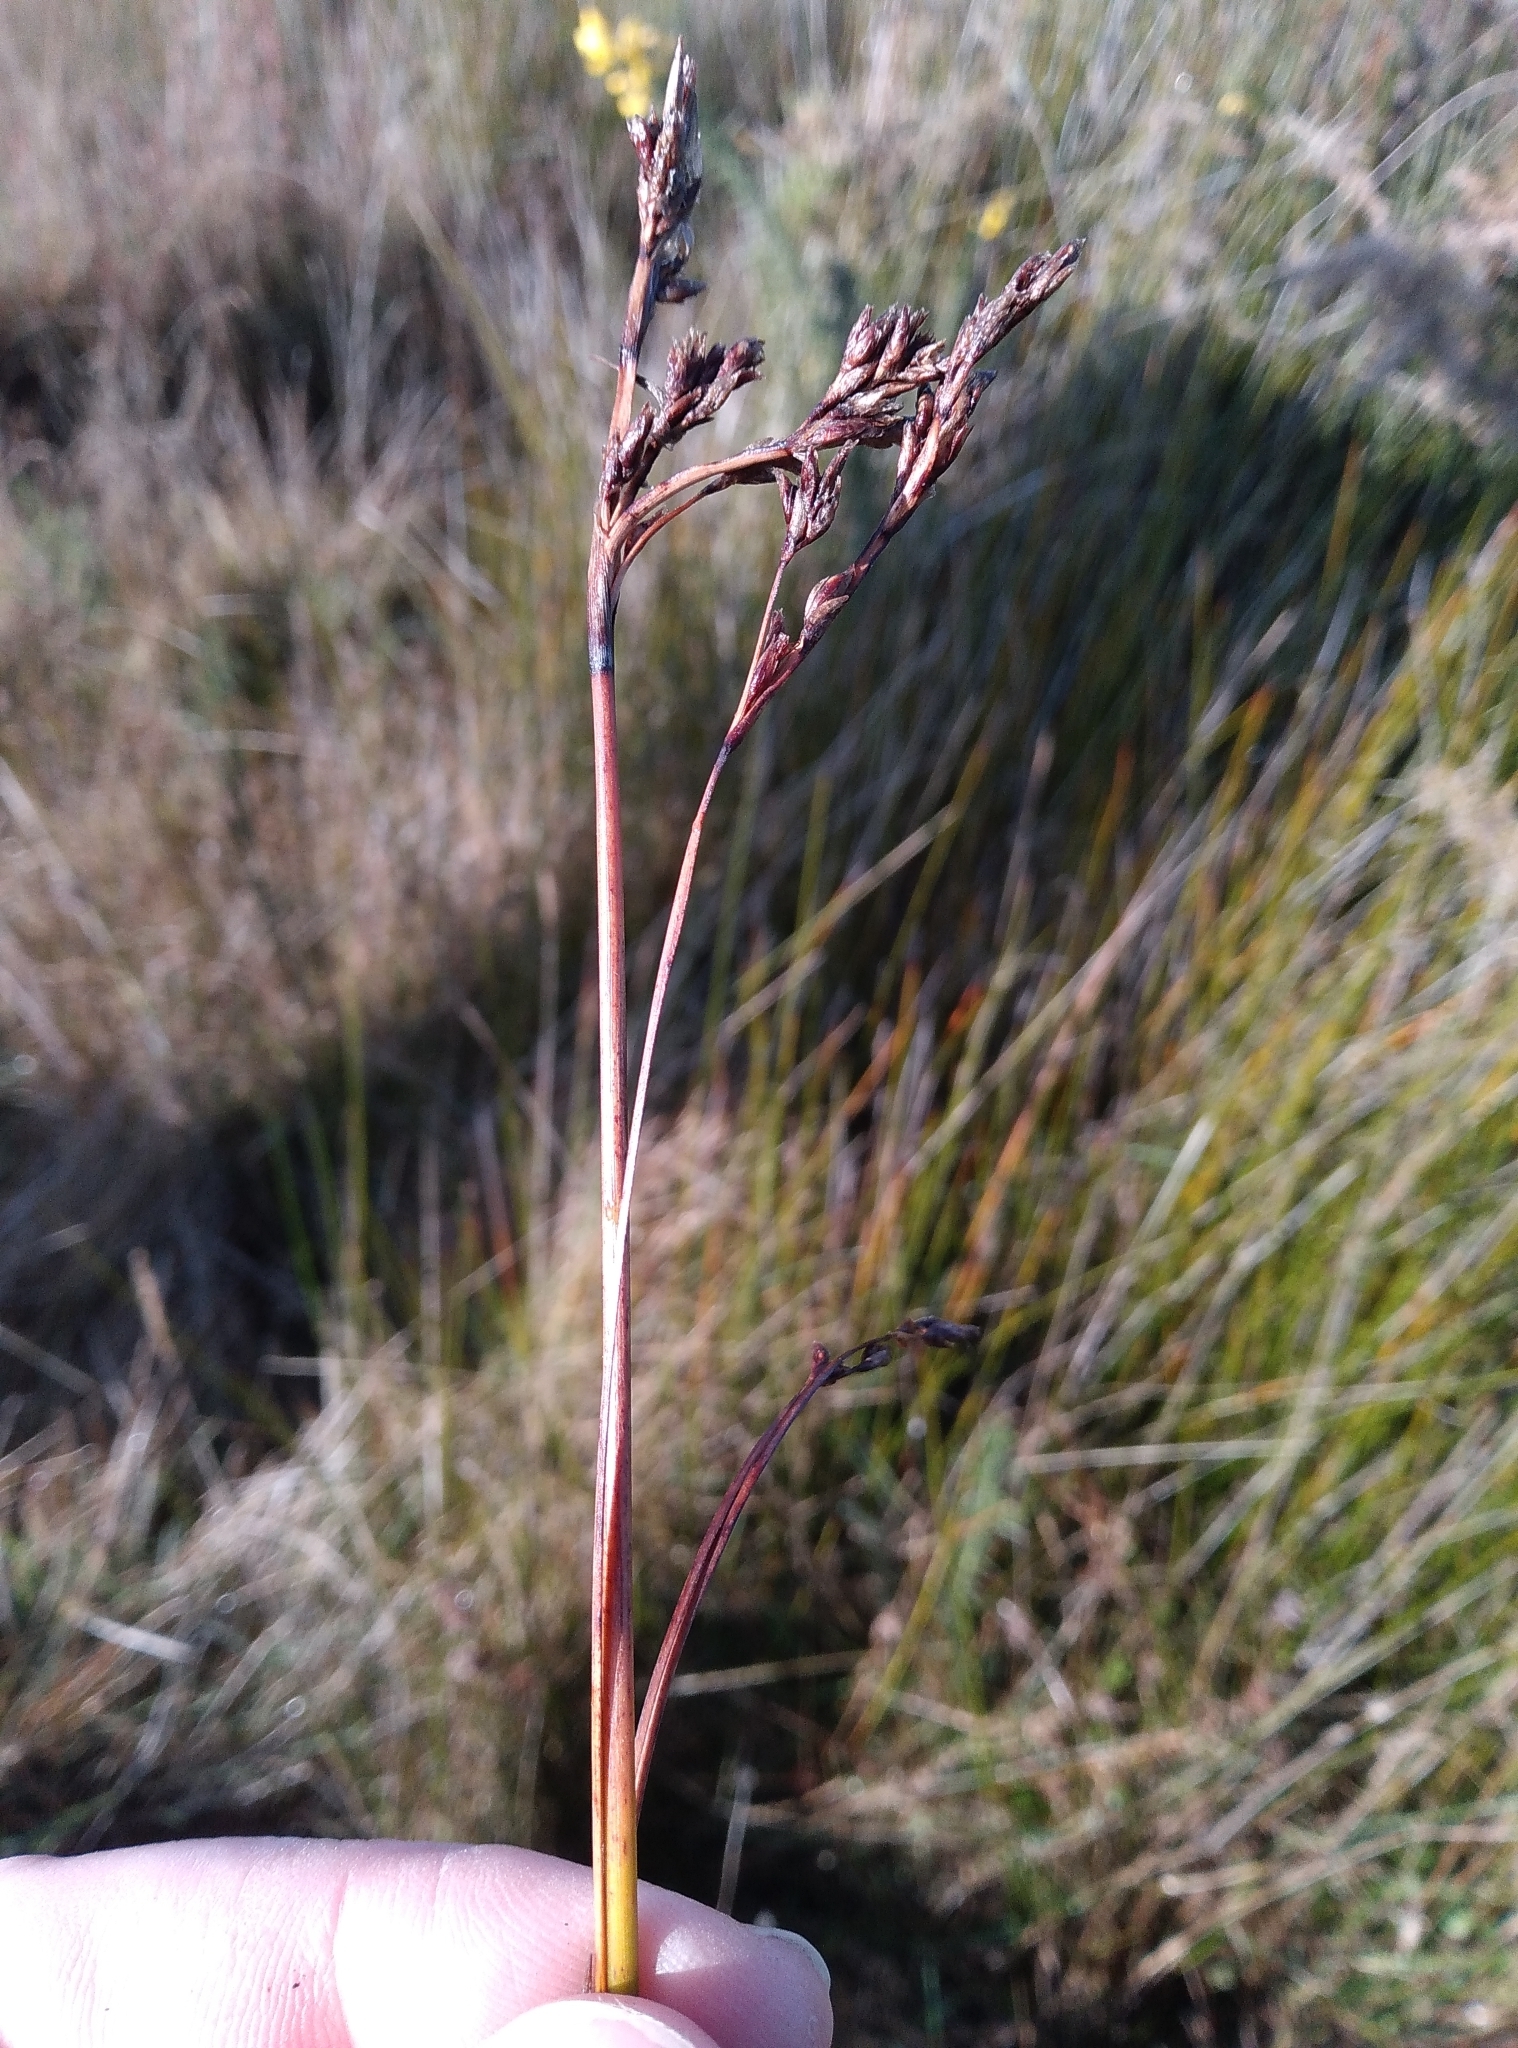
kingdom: Plantae
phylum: Tracheophyta
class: Liliopsida
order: Poales
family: Cyperaceae
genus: Machaerina
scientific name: Machaerina rubiginosa
